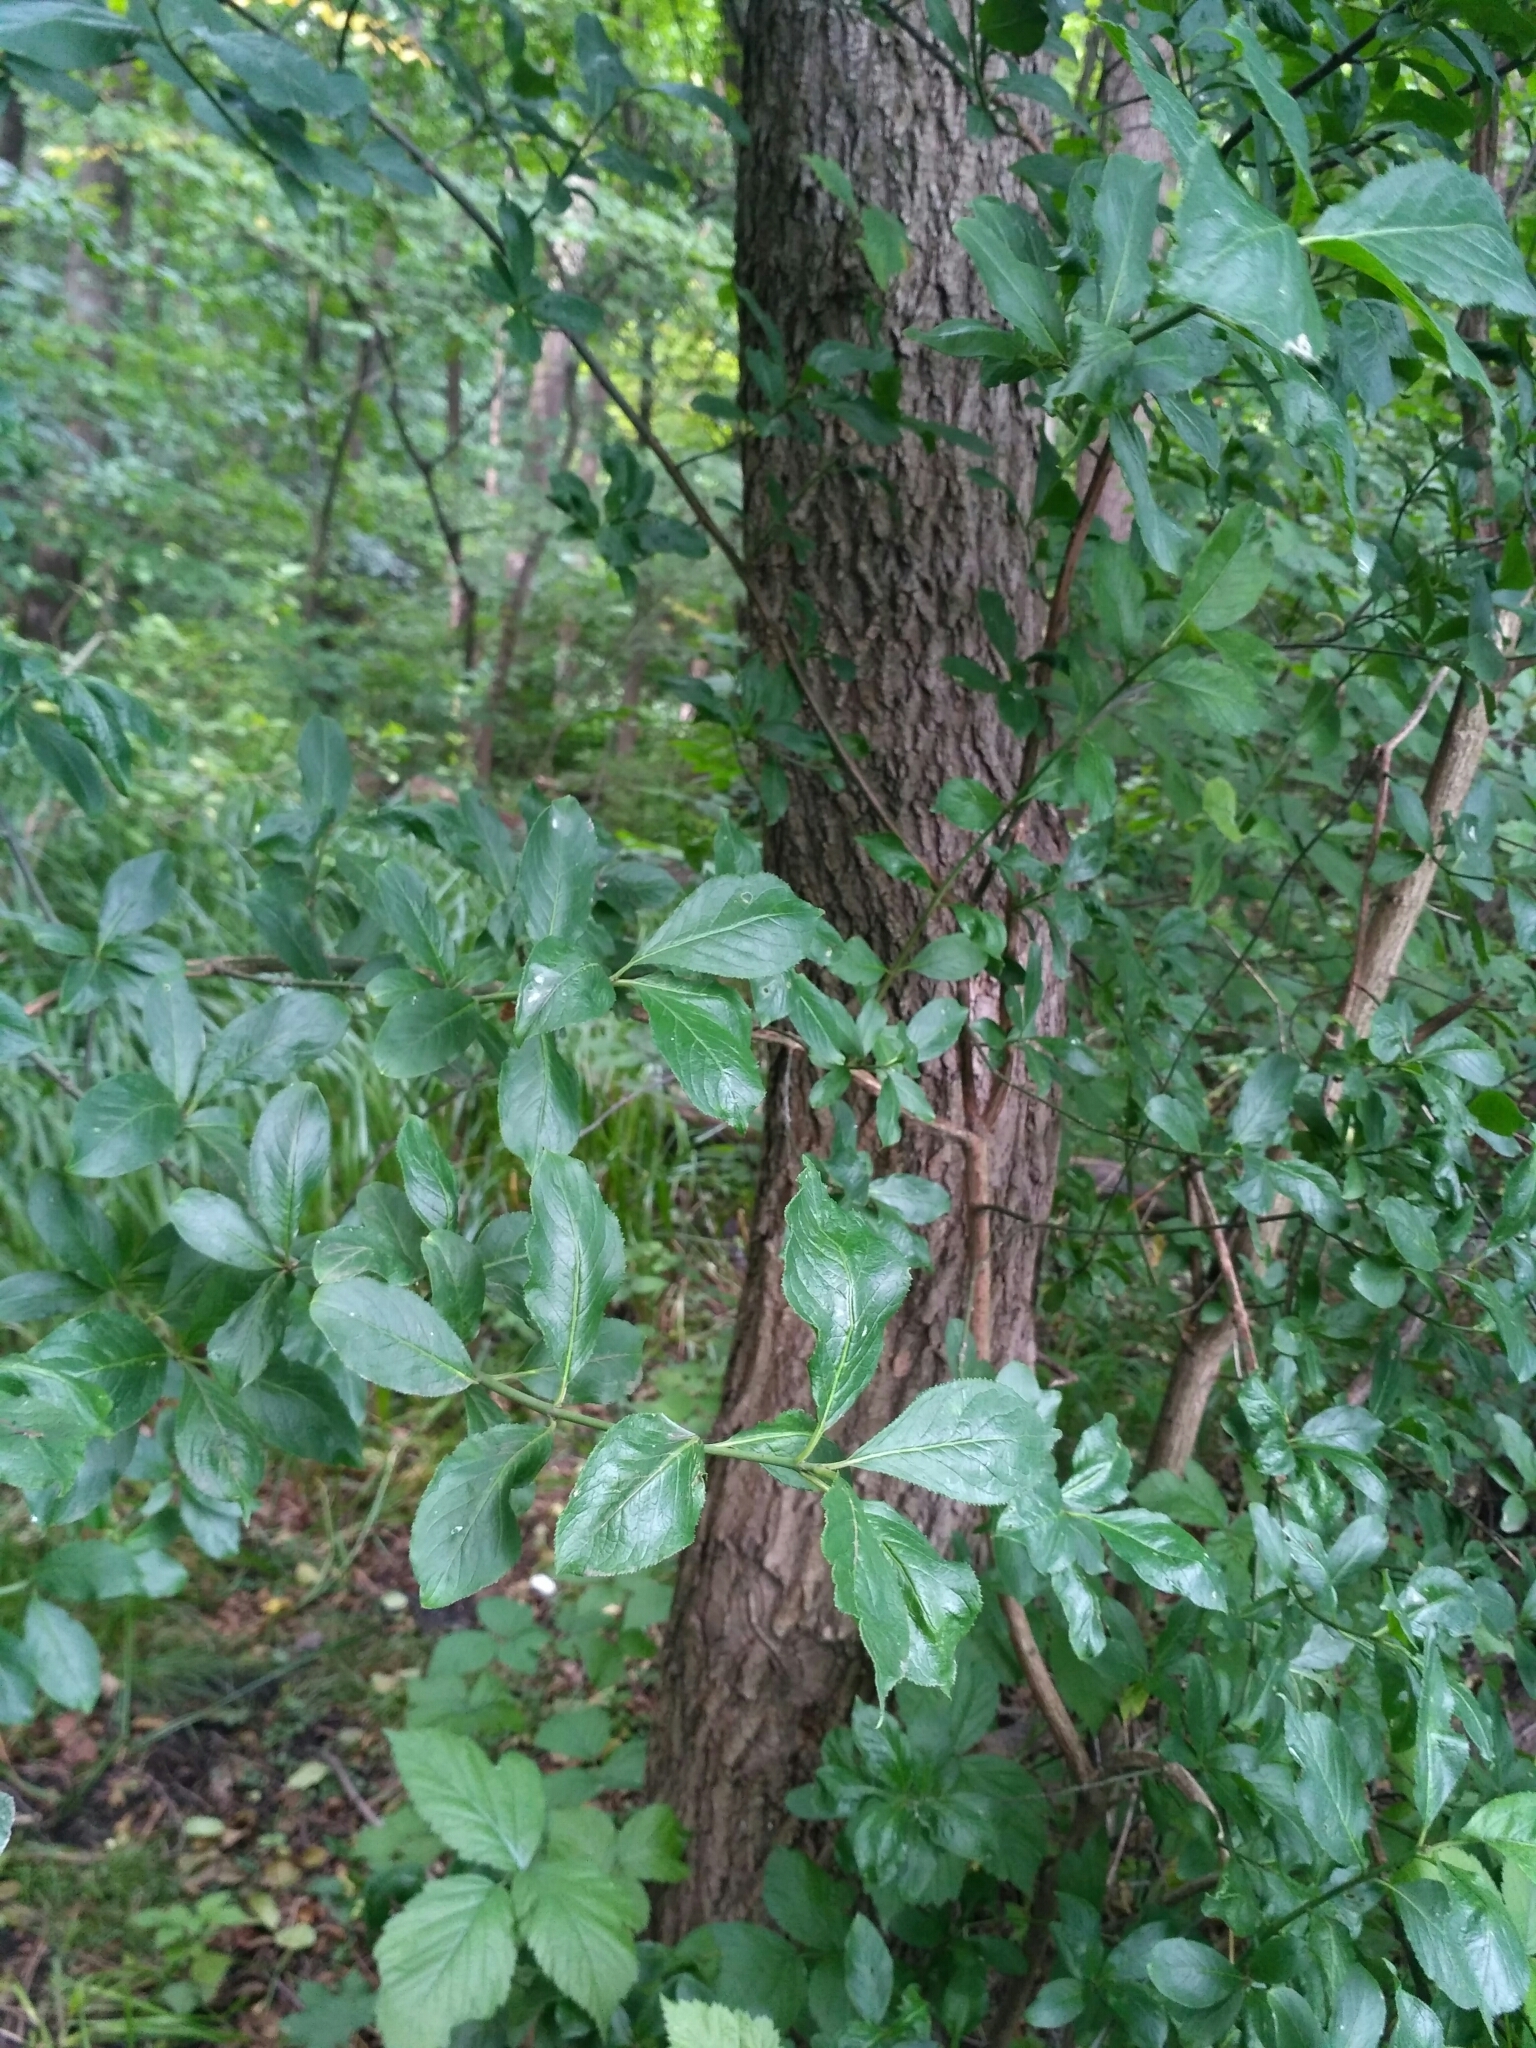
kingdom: Plantae
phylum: Tracheophyta
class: Magnoliopsida
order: Celastrales
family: Celastraceae
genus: Euonymus
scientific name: Euonymus europaeus
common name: Spindle
